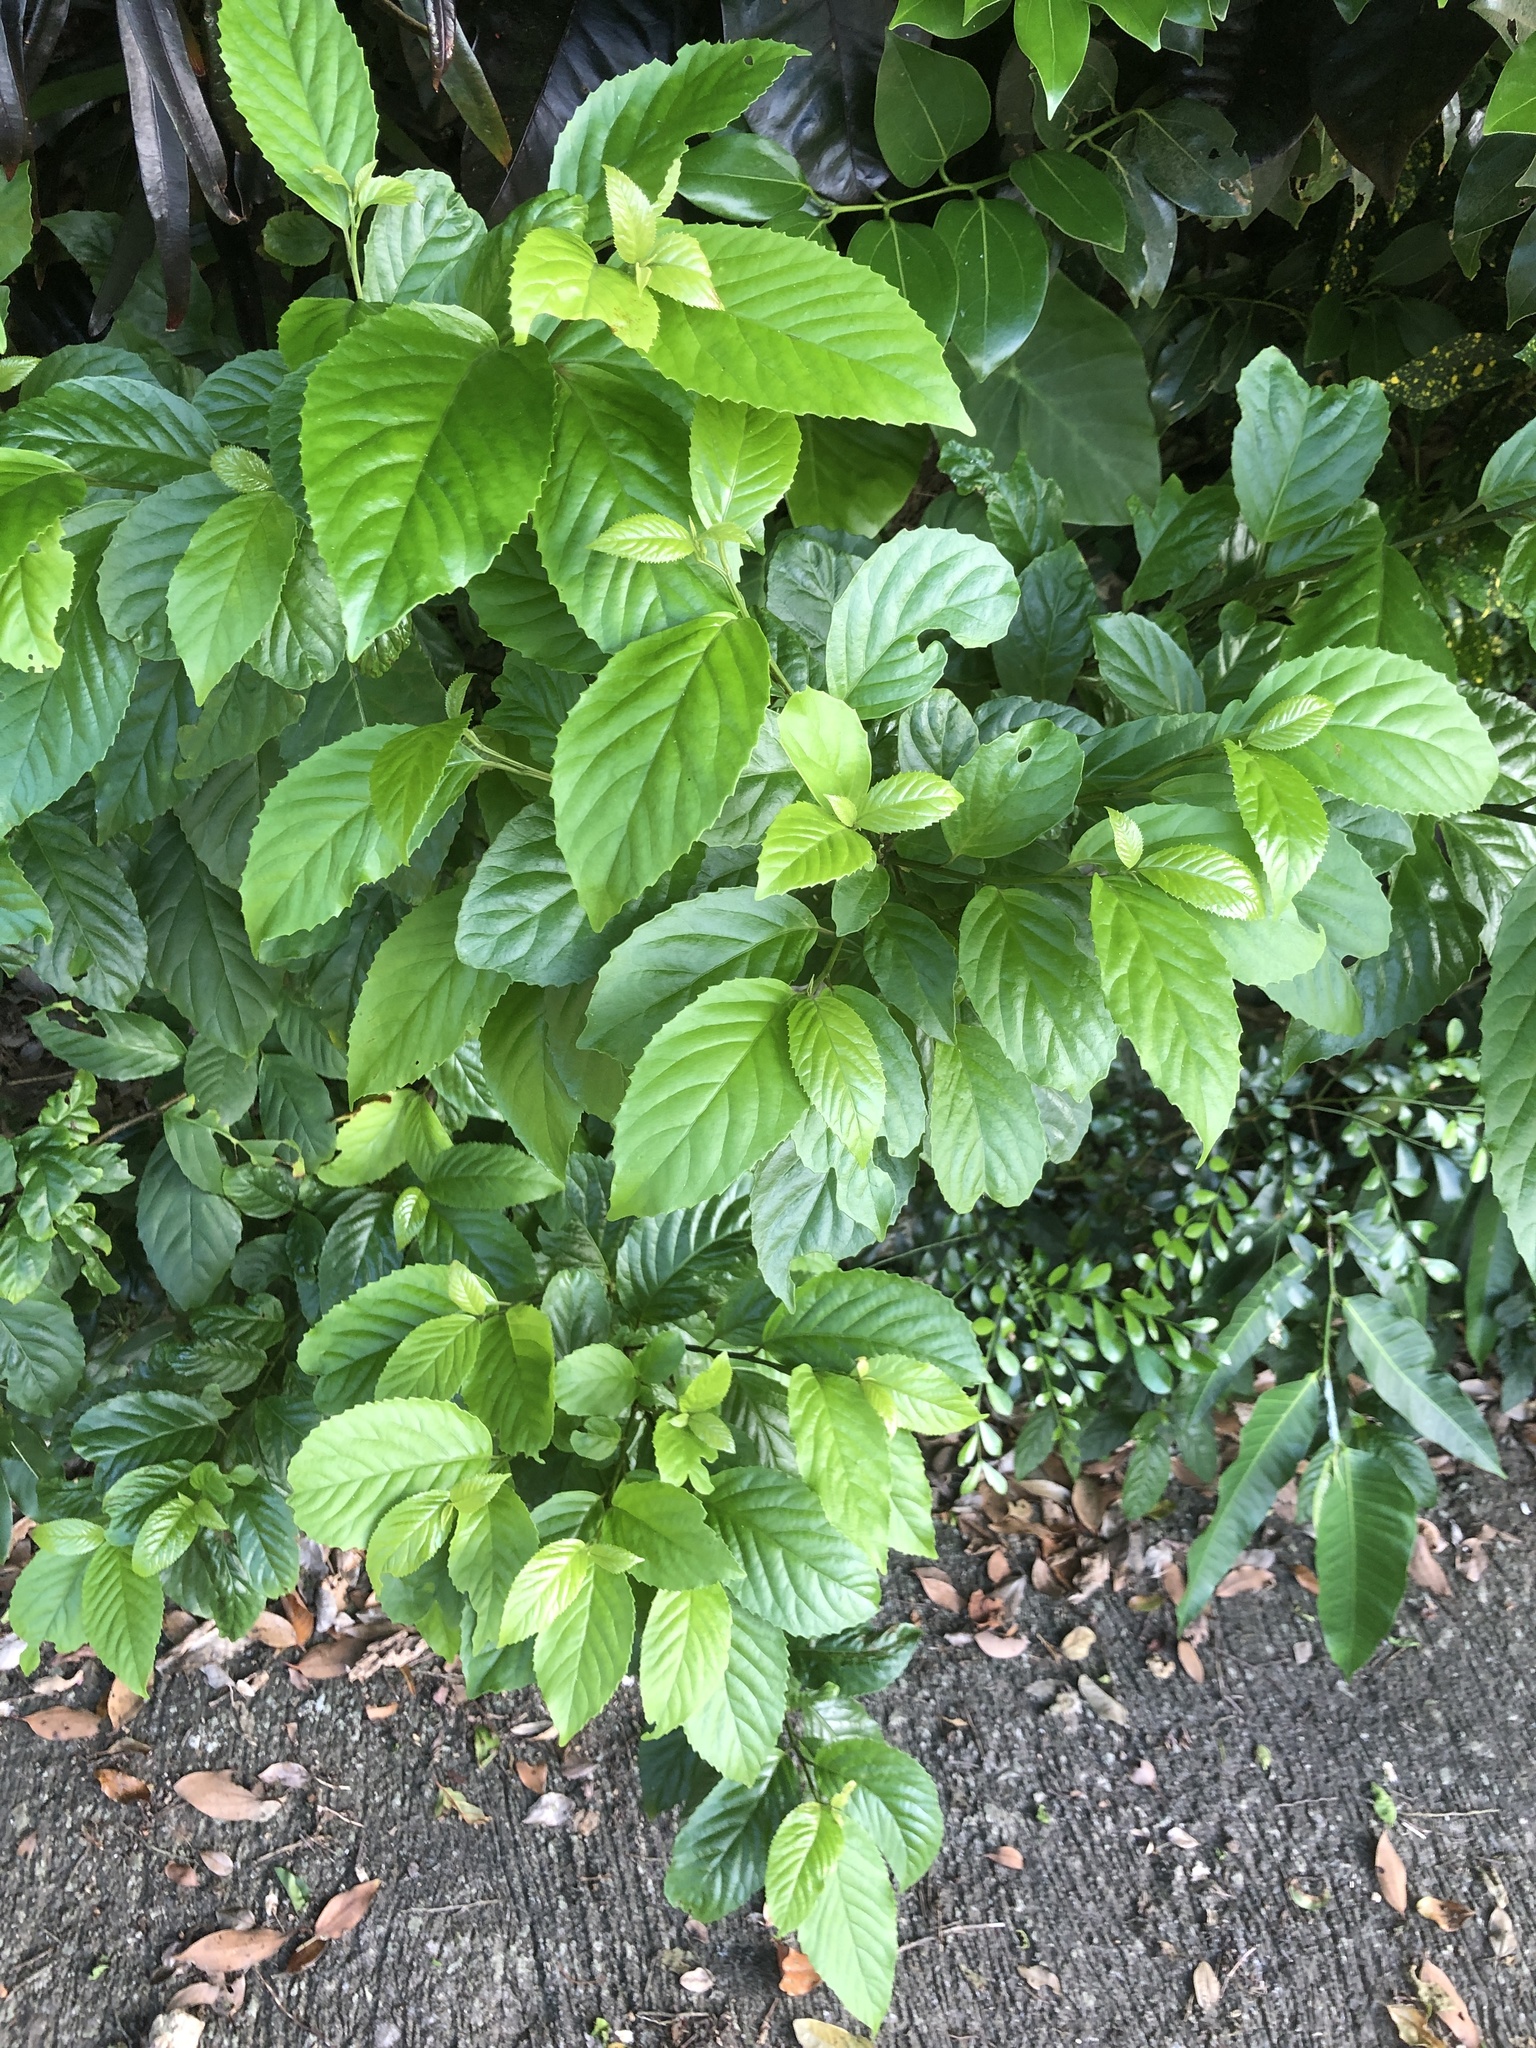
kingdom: Plantae
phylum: Tracheophyta
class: Magnoliopsida
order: Ericales
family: Primulaceae
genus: Maesa
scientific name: Maesa perlaria
